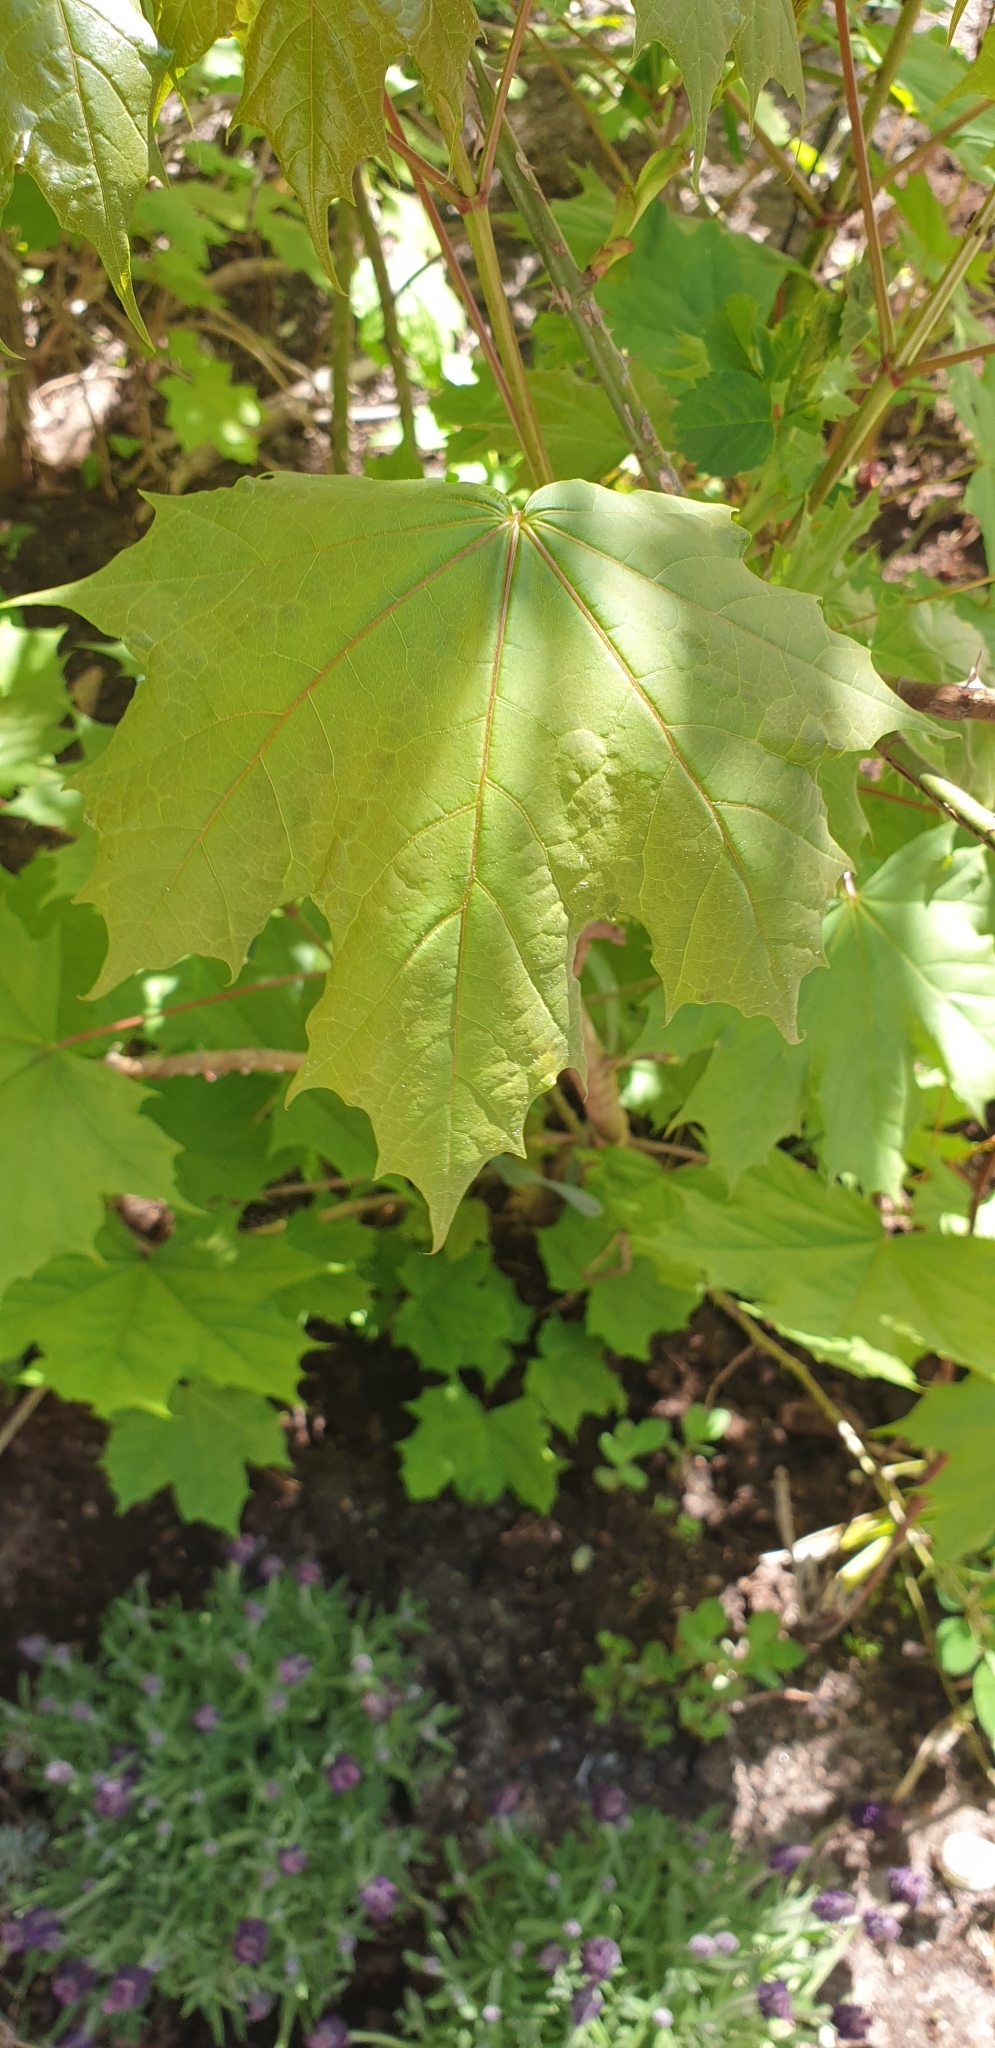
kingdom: Plantae
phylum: Tracheophyta
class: Magnoliopsida
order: Sapindales
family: Sapindaceae
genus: Acer
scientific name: Acer platanoides
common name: Norway maple
